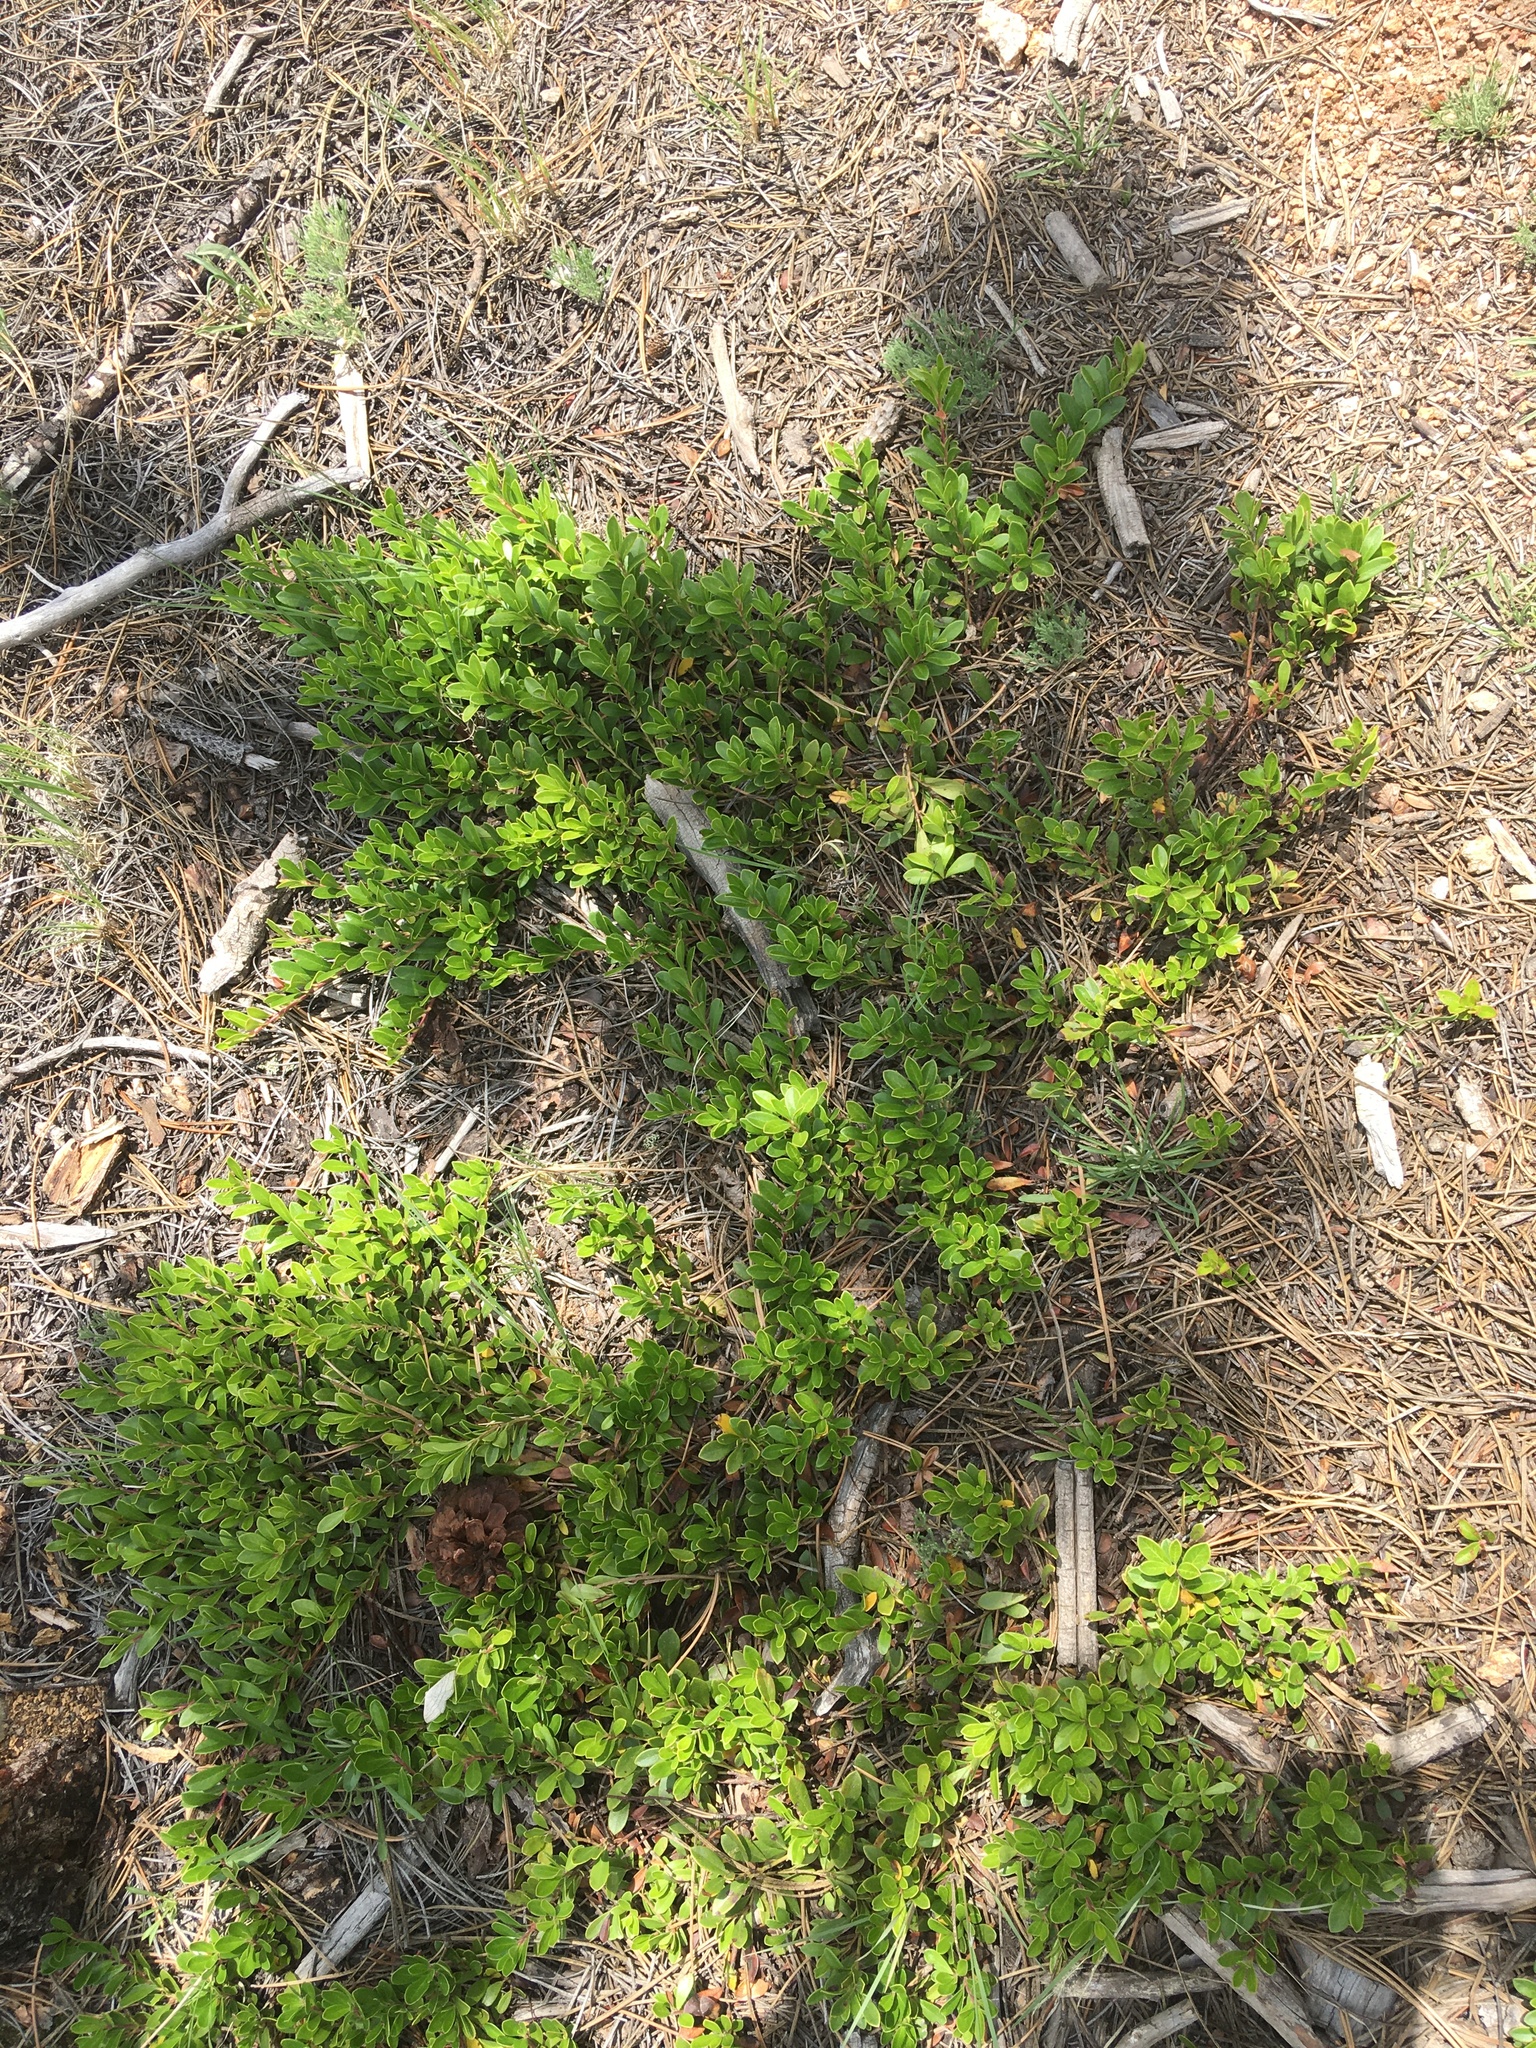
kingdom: Plantae
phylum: Tracheophyta
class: Magnoliopsida
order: Ericales
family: Ericaceae
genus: Arctostaphylos
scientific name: Arctostaphylos uva-ursi
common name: Bearberry
